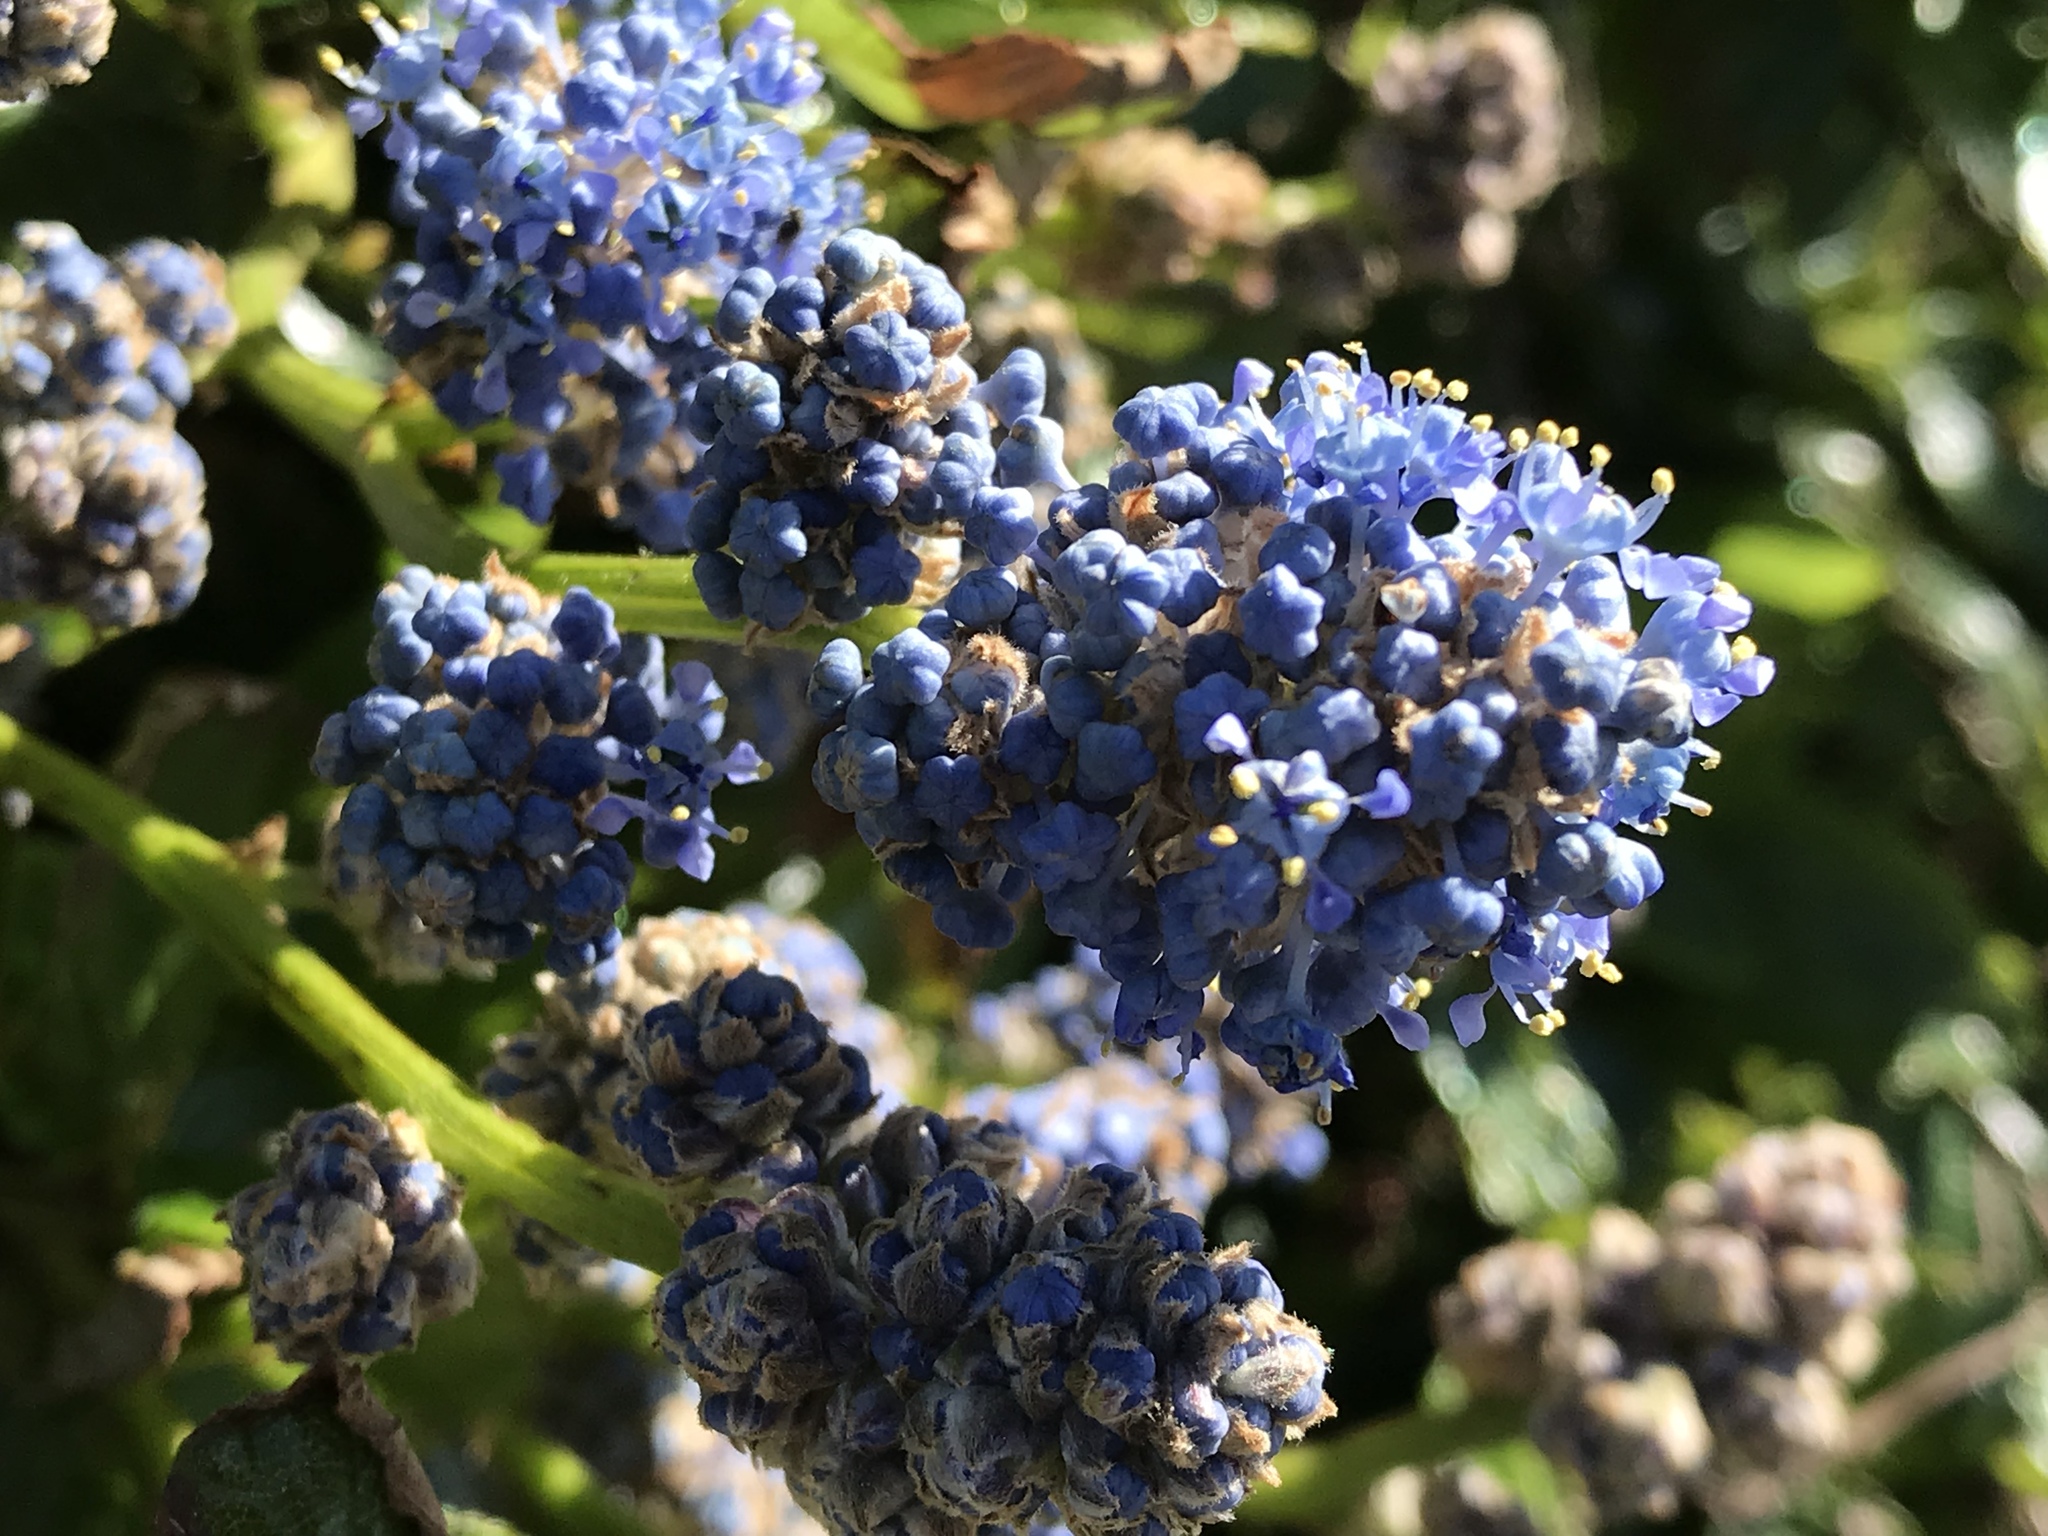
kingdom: Plantae
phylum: Tracheophyta
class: Magnoliopsida
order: Rosales
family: Rhamnaceae
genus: Ceanothus
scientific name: Ceanothus thyrsiflorus
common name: California-lilac
